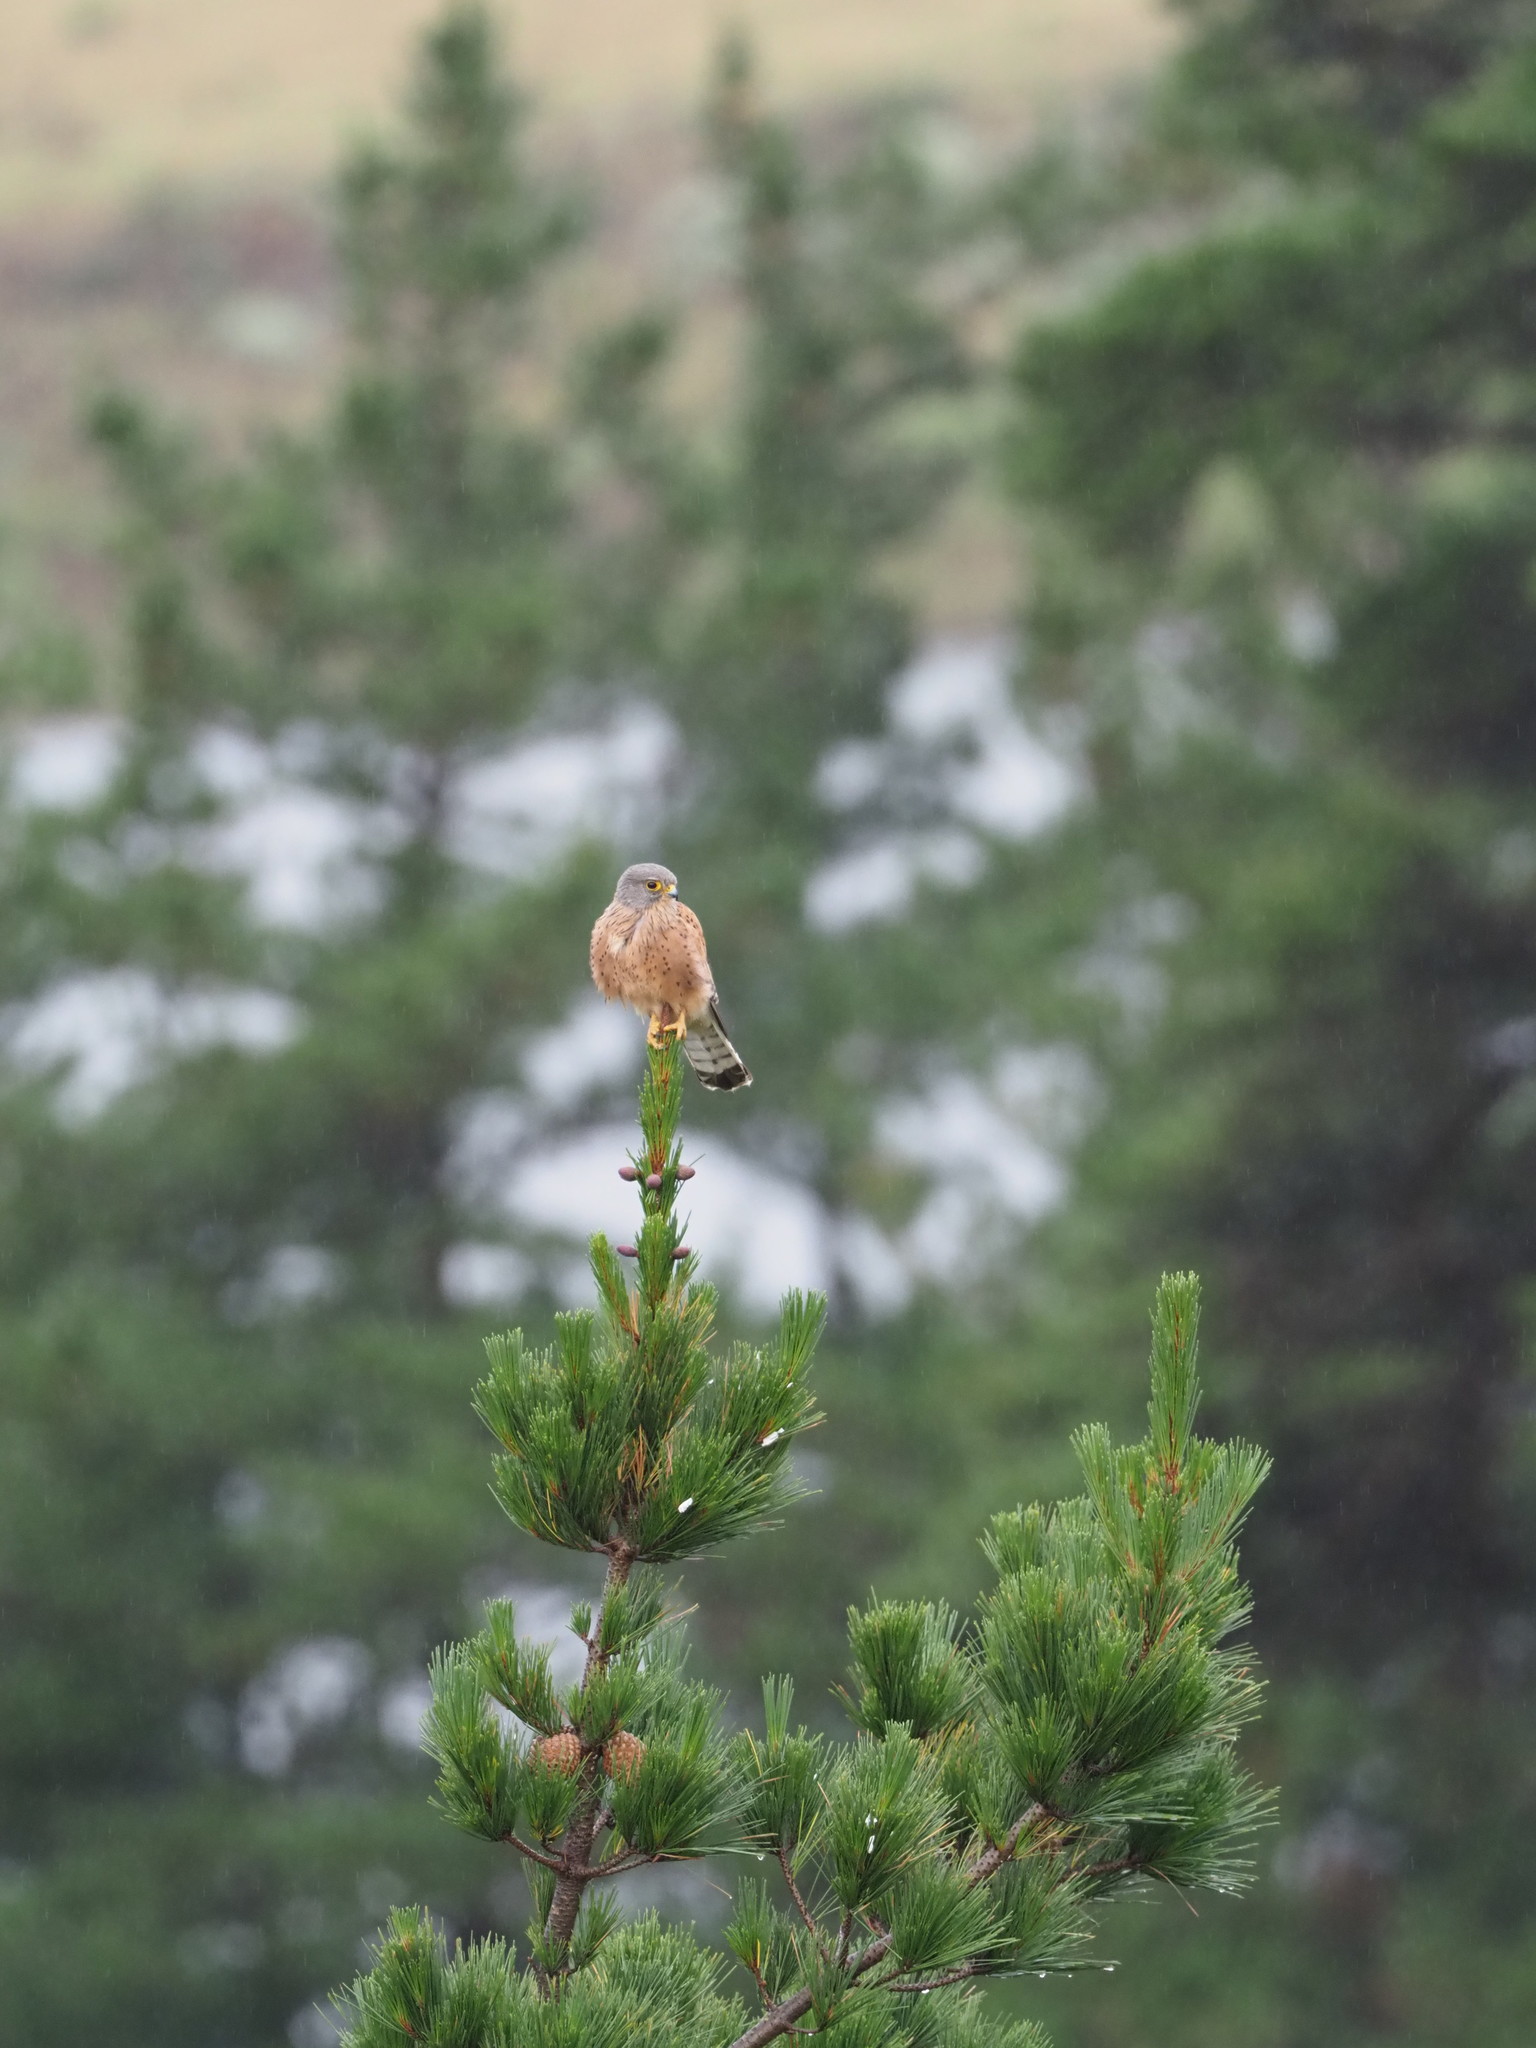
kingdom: Animalia
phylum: Chordata
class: Aves
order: Falconiformes
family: Falconidae
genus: Falco
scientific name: Falco rupicolus
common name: Rock kestrel
